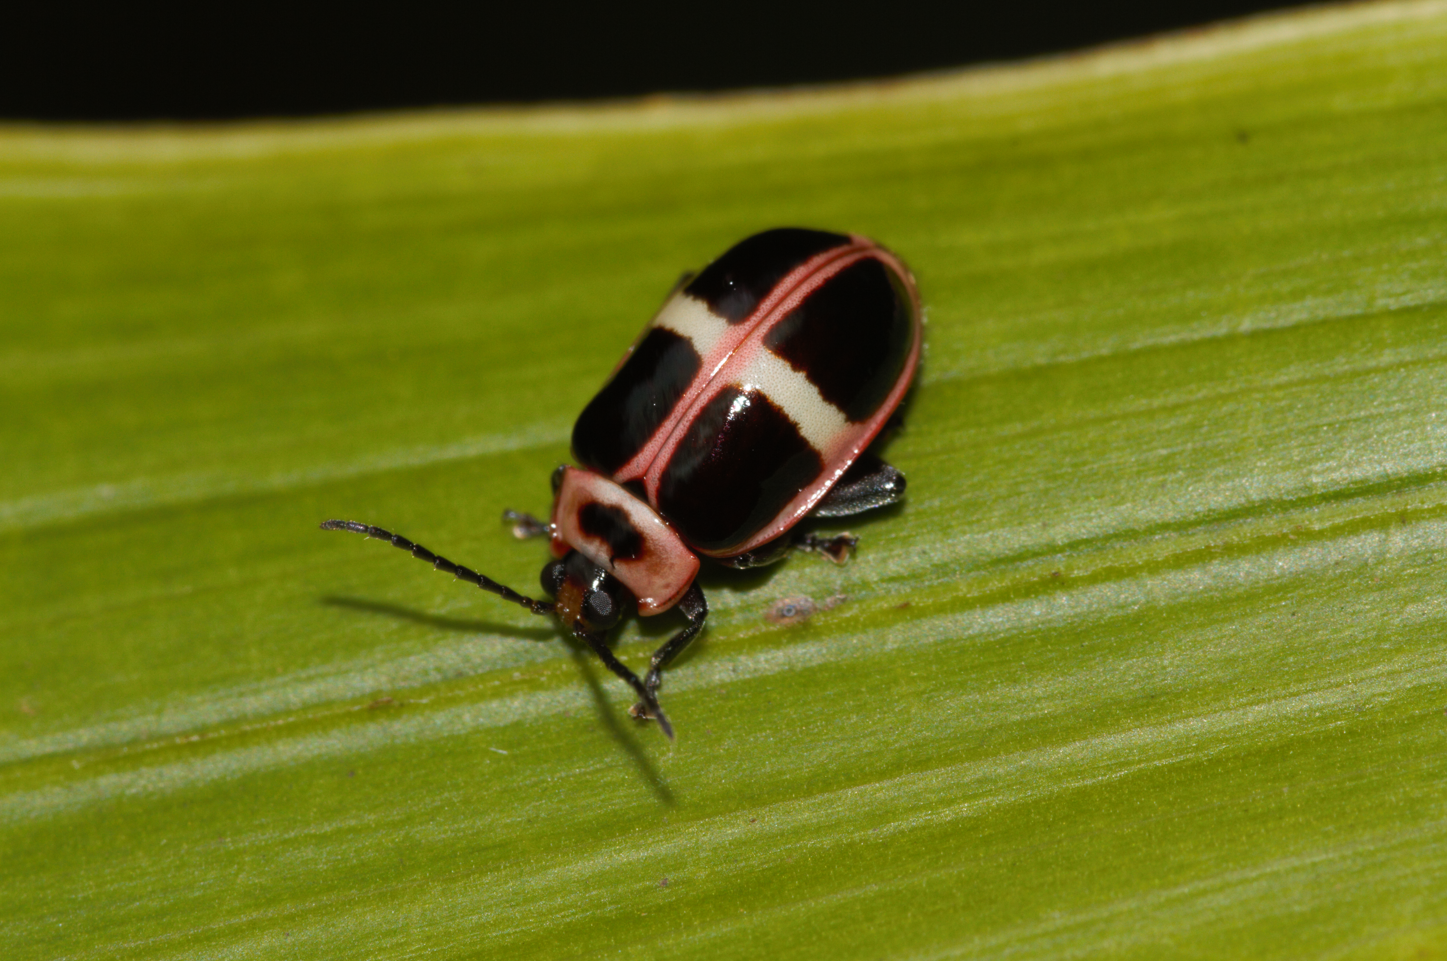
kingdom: Animalia
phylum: Arthropoda
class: Insecta
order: Coleoptera
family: Chrysomelidae
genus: Asphaera
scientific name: Asphaera
